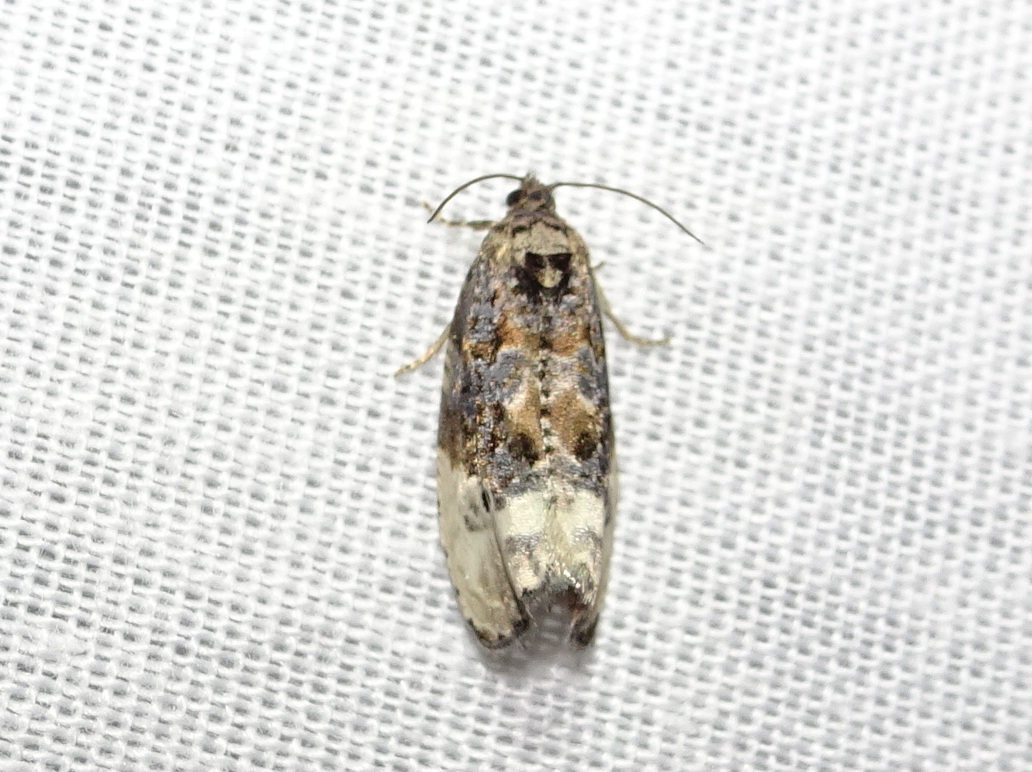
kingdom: Animalia
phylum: Arthropoda
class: Insecta
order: Lepidoptera
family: Tortricidae
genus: Hedya
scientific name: Hedya nubiferana
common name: Marbled orchard tortrix
